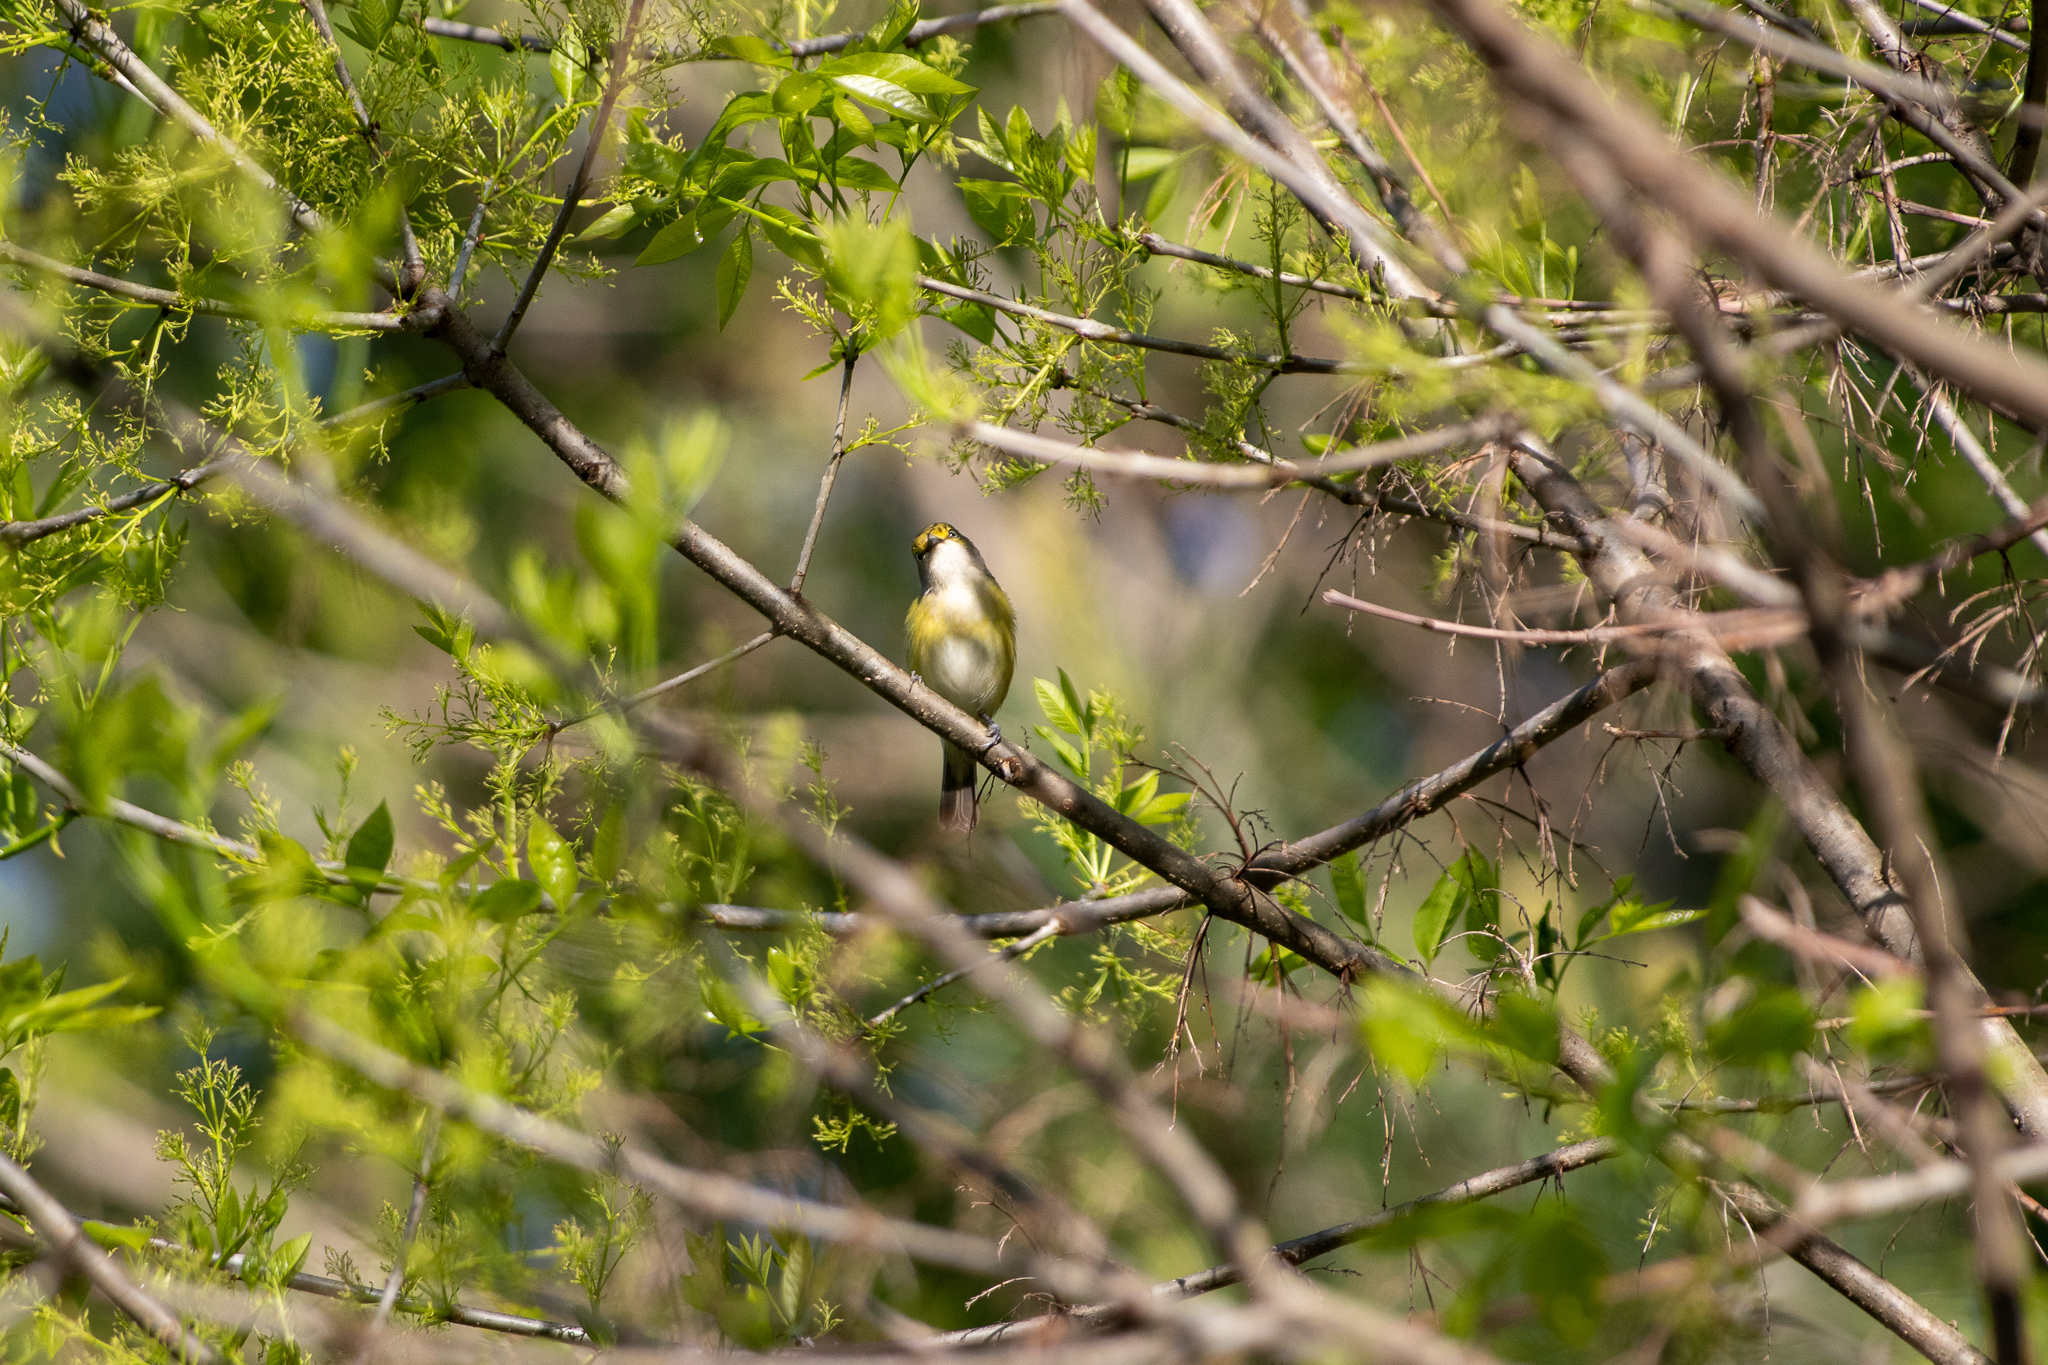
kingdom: Animalia
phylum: Chordata
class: Aves
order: Passeriformes
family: Vireonidae
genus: Vireo
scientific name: Vireo griseus
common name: White-eyed vireo
